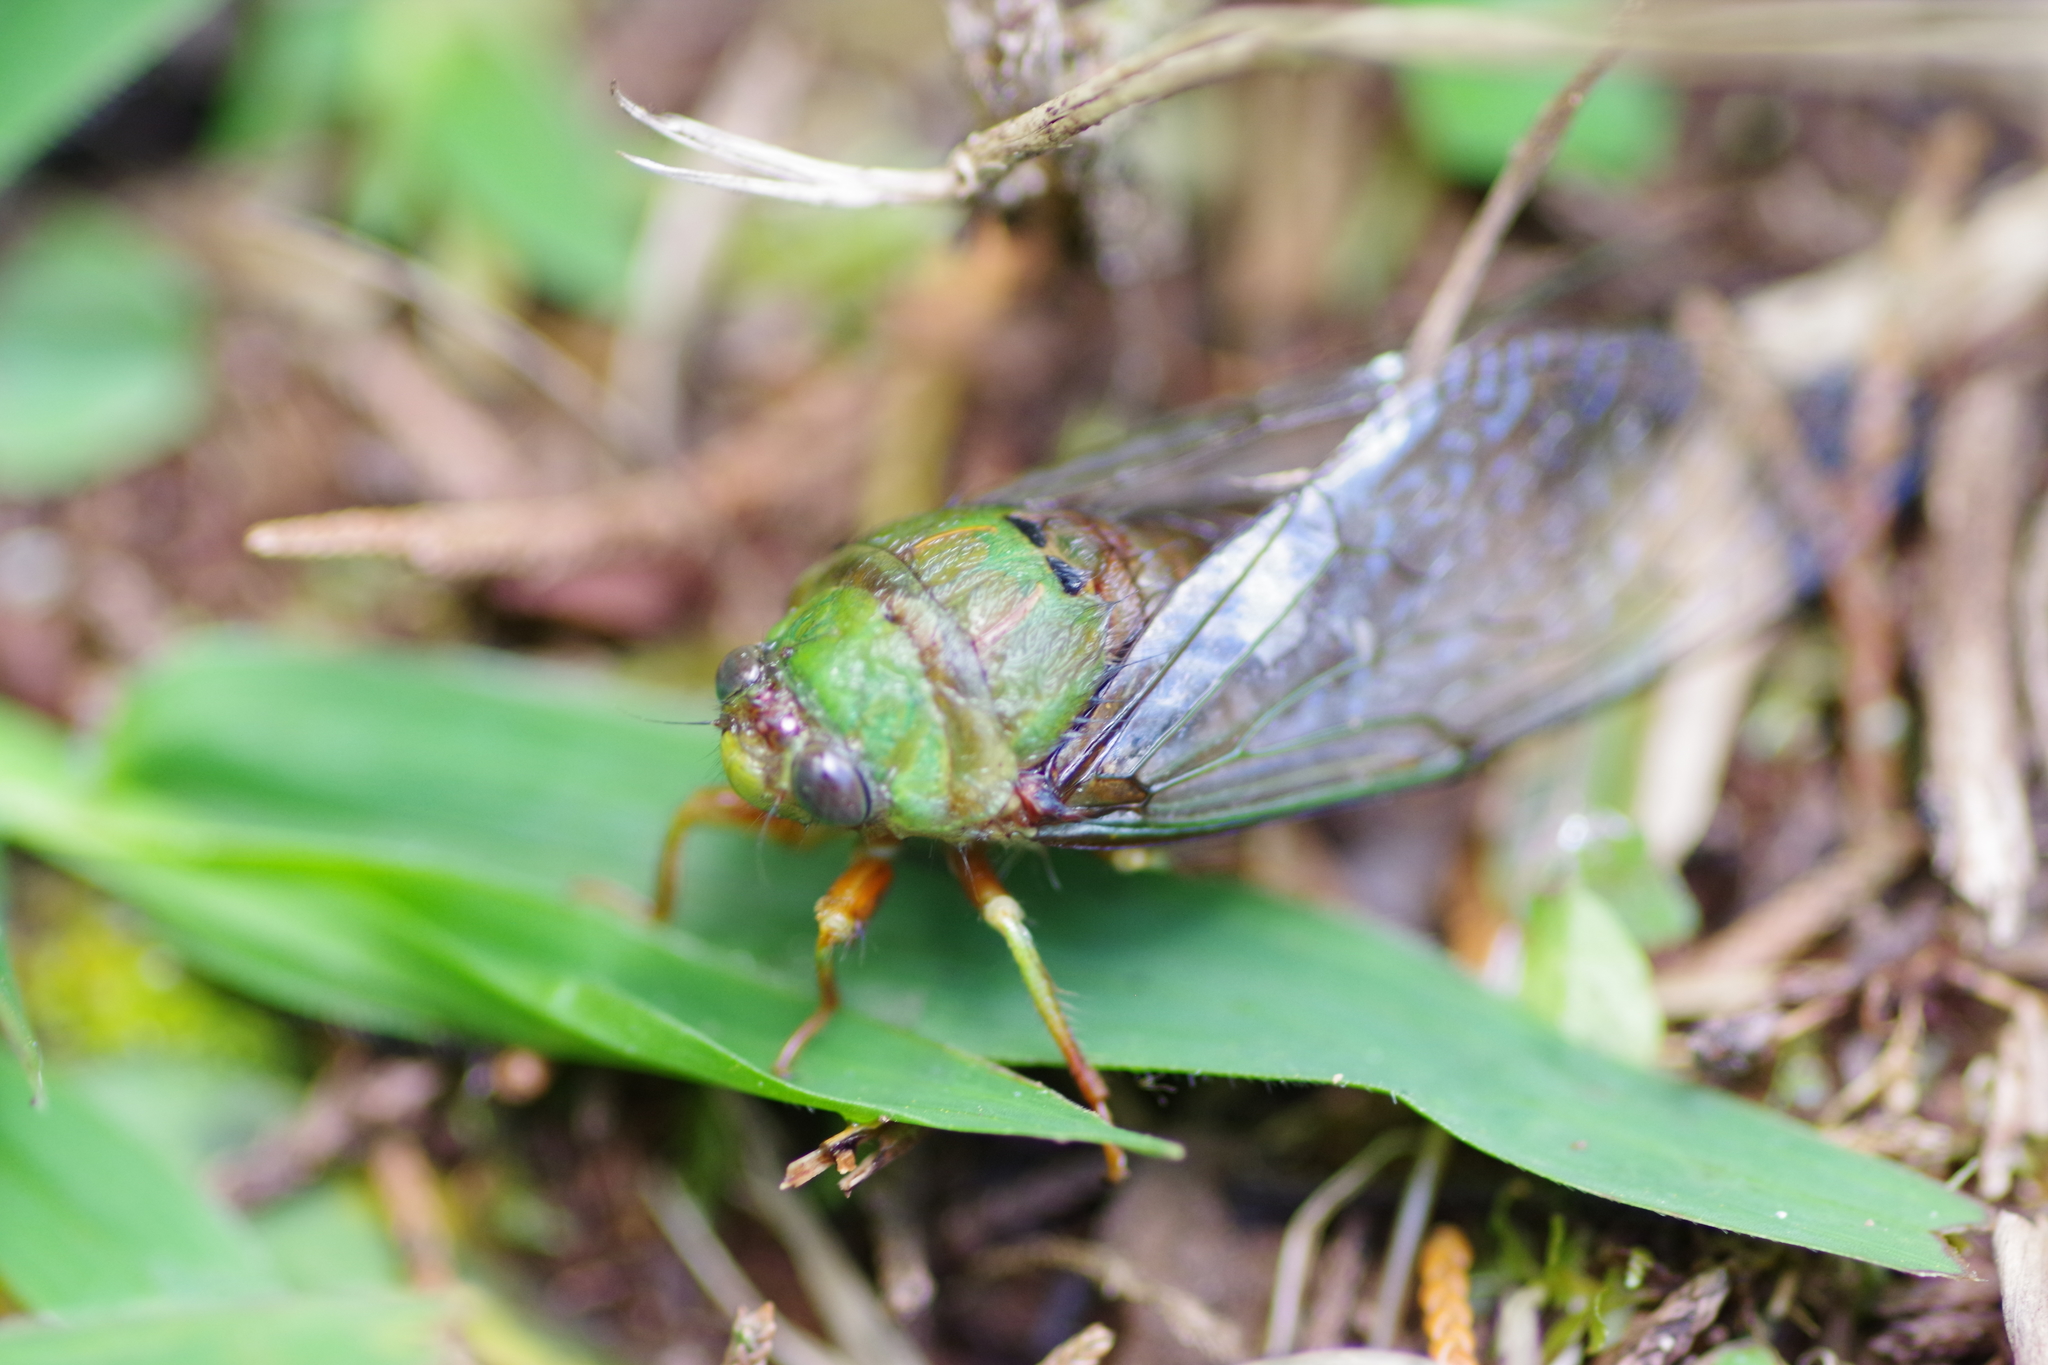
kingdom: Animalia
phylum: Arthropoda
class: Insecta
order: Hemiptera
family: Cicadidae
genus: Carineta
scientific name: Carineta aestiva
